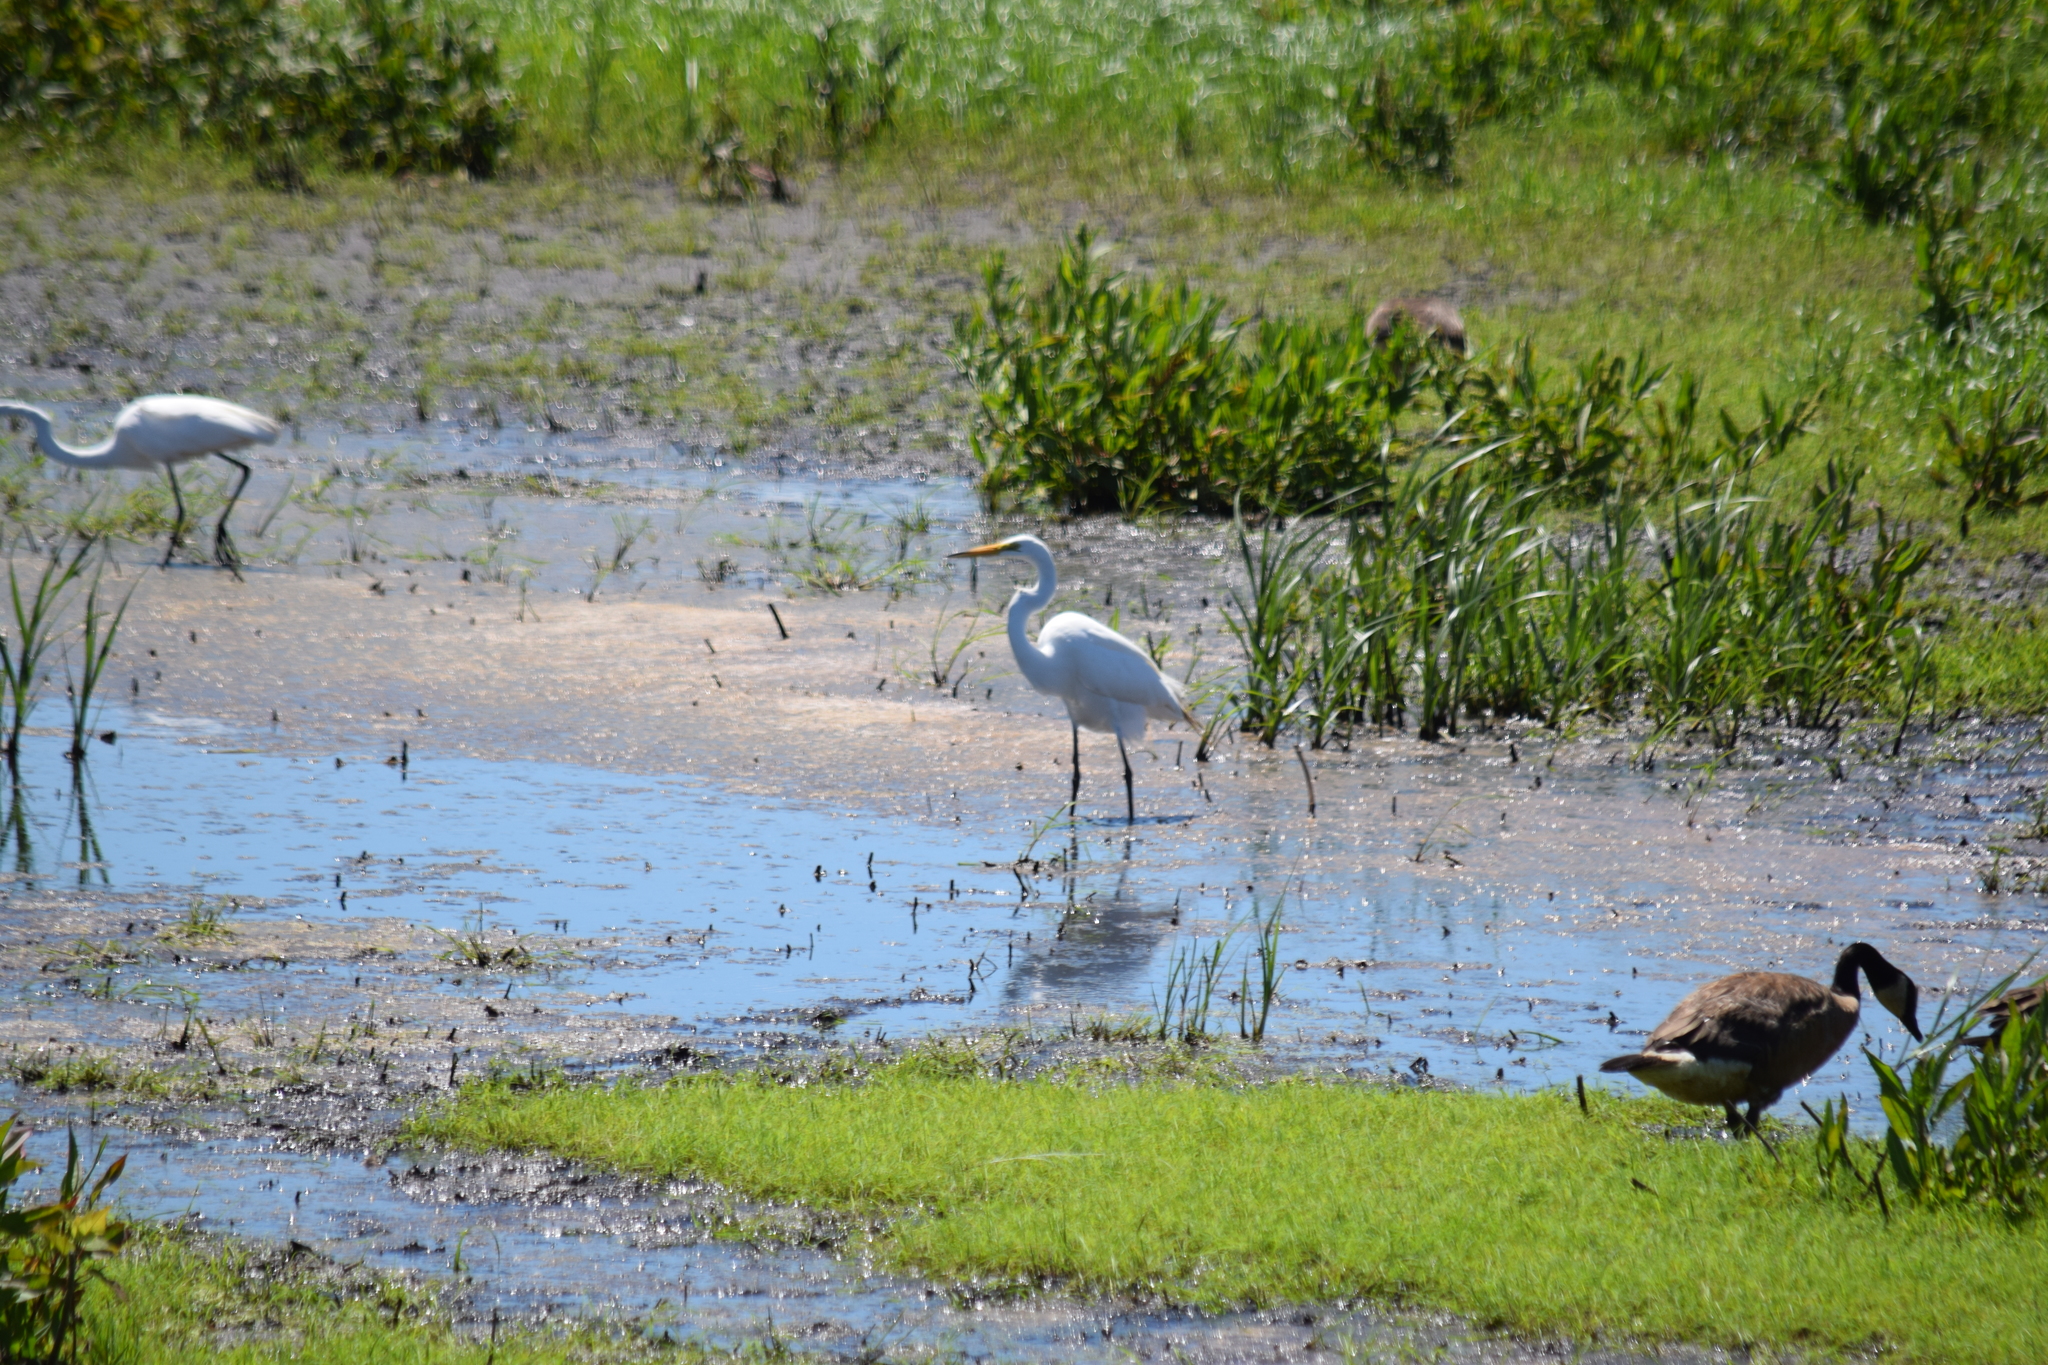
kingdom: Animalia
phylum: Chordata
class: Aves
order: Pelecaniformes
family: Ardeidae
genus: Ardea
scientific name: Ardea alba
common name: Great egret
